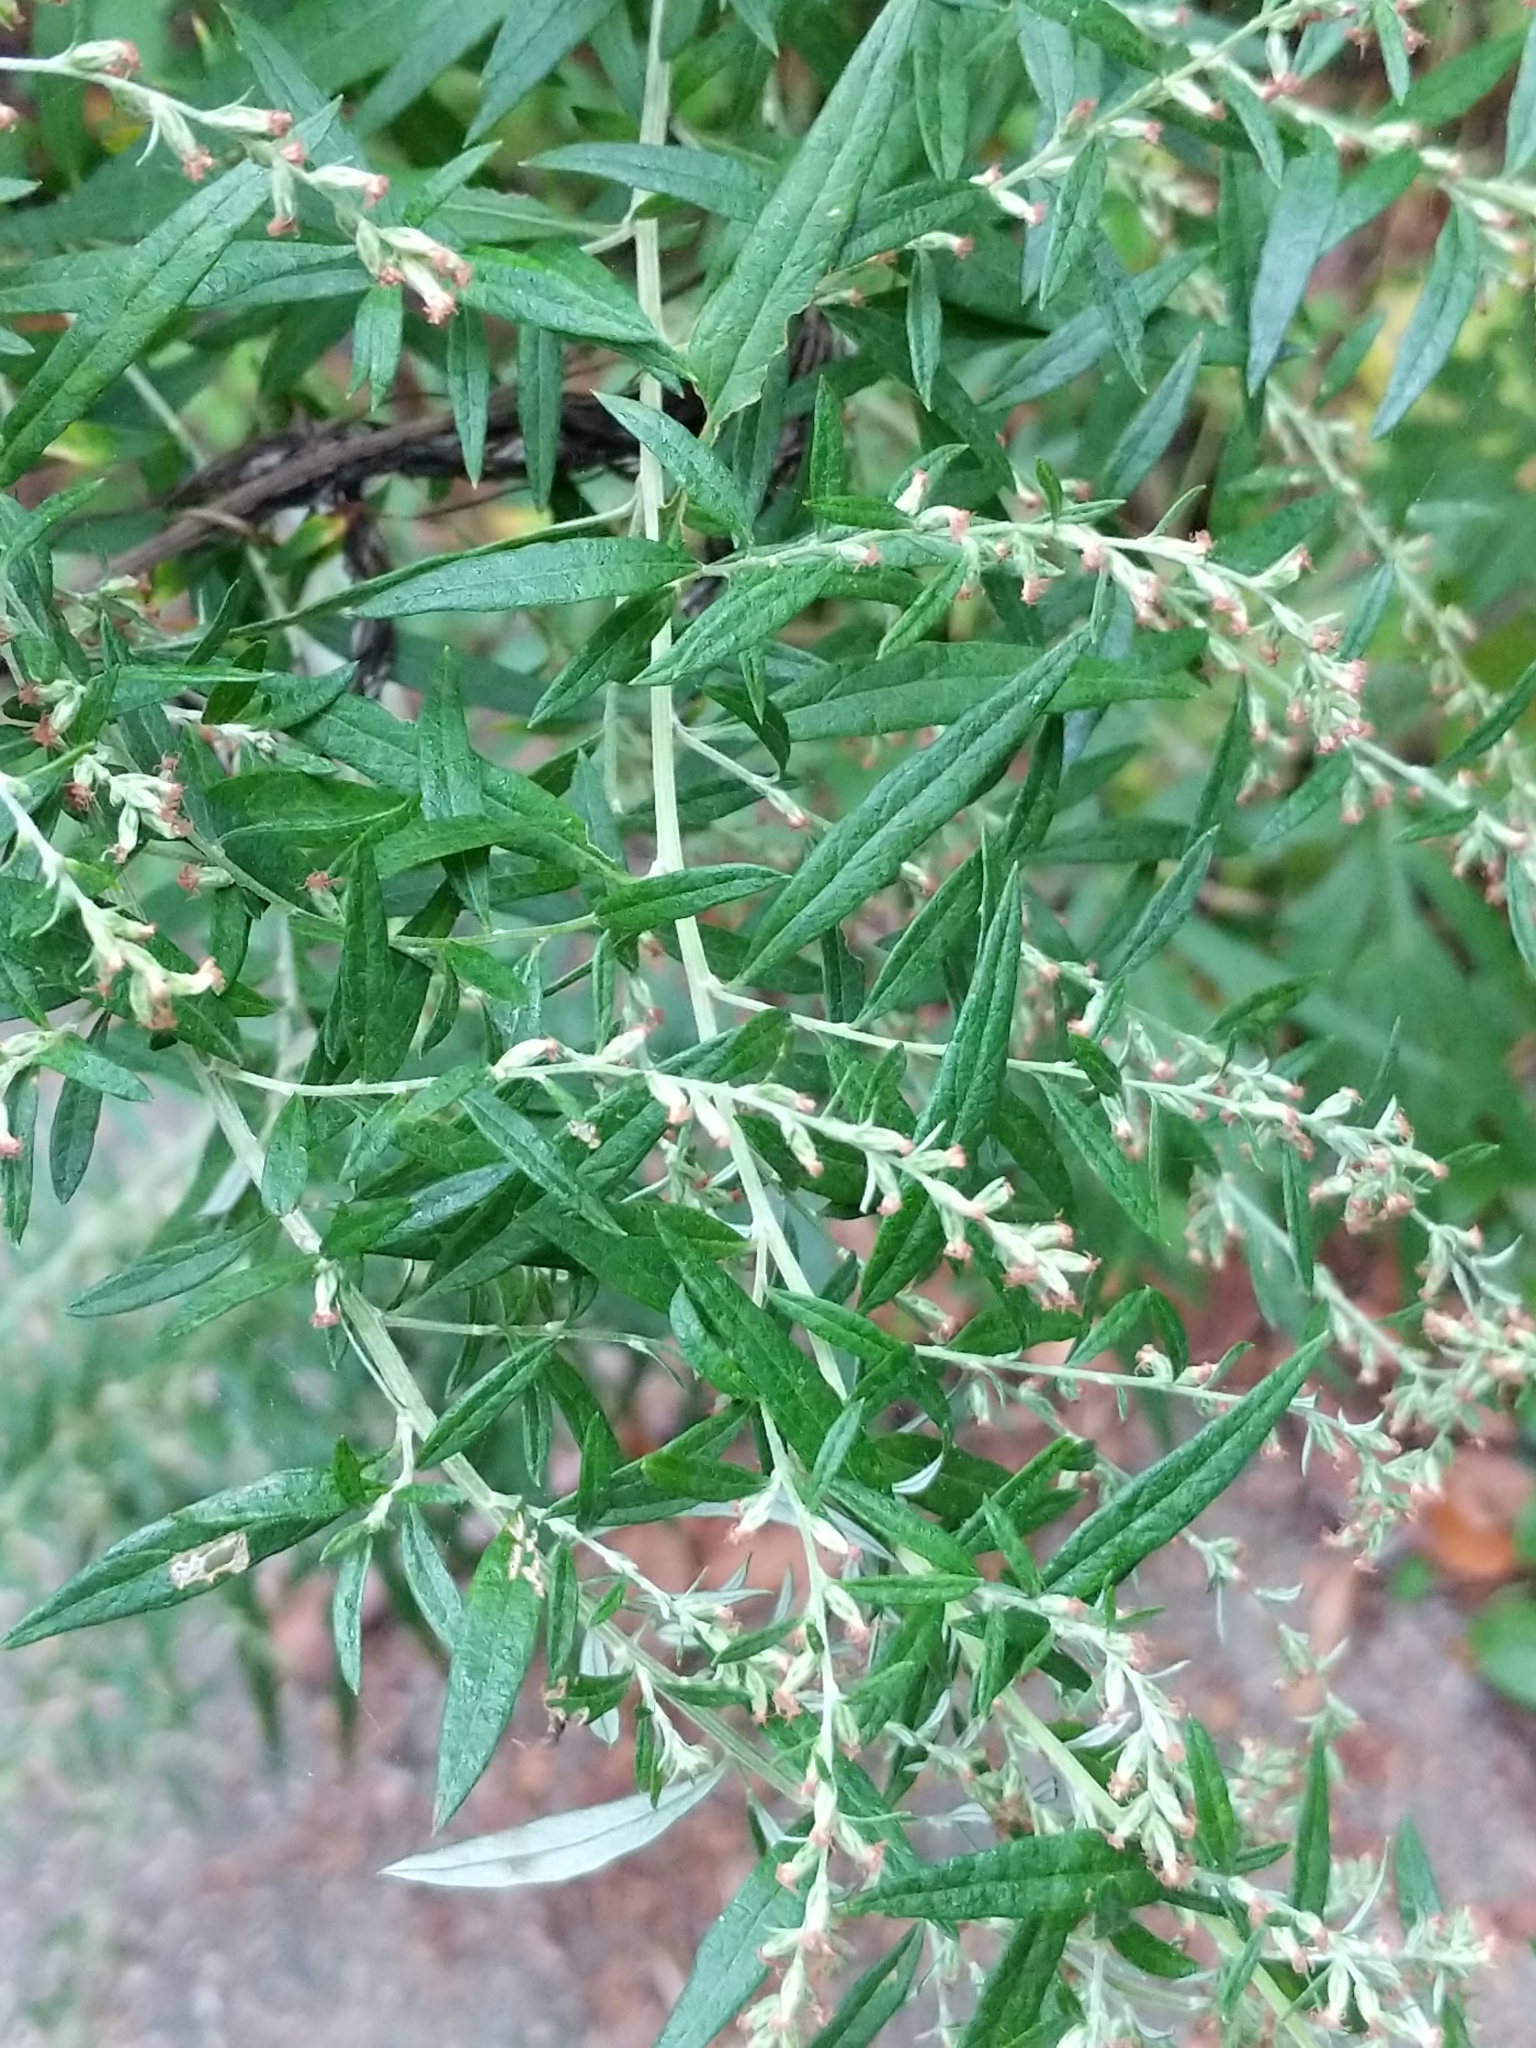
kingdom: Plantae
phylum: Tracheophyta
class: Magnoliopsida
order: Asterales
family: Asteraceae
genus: Artemisia
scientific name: Artemisia vulgaris
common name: Mugwort
